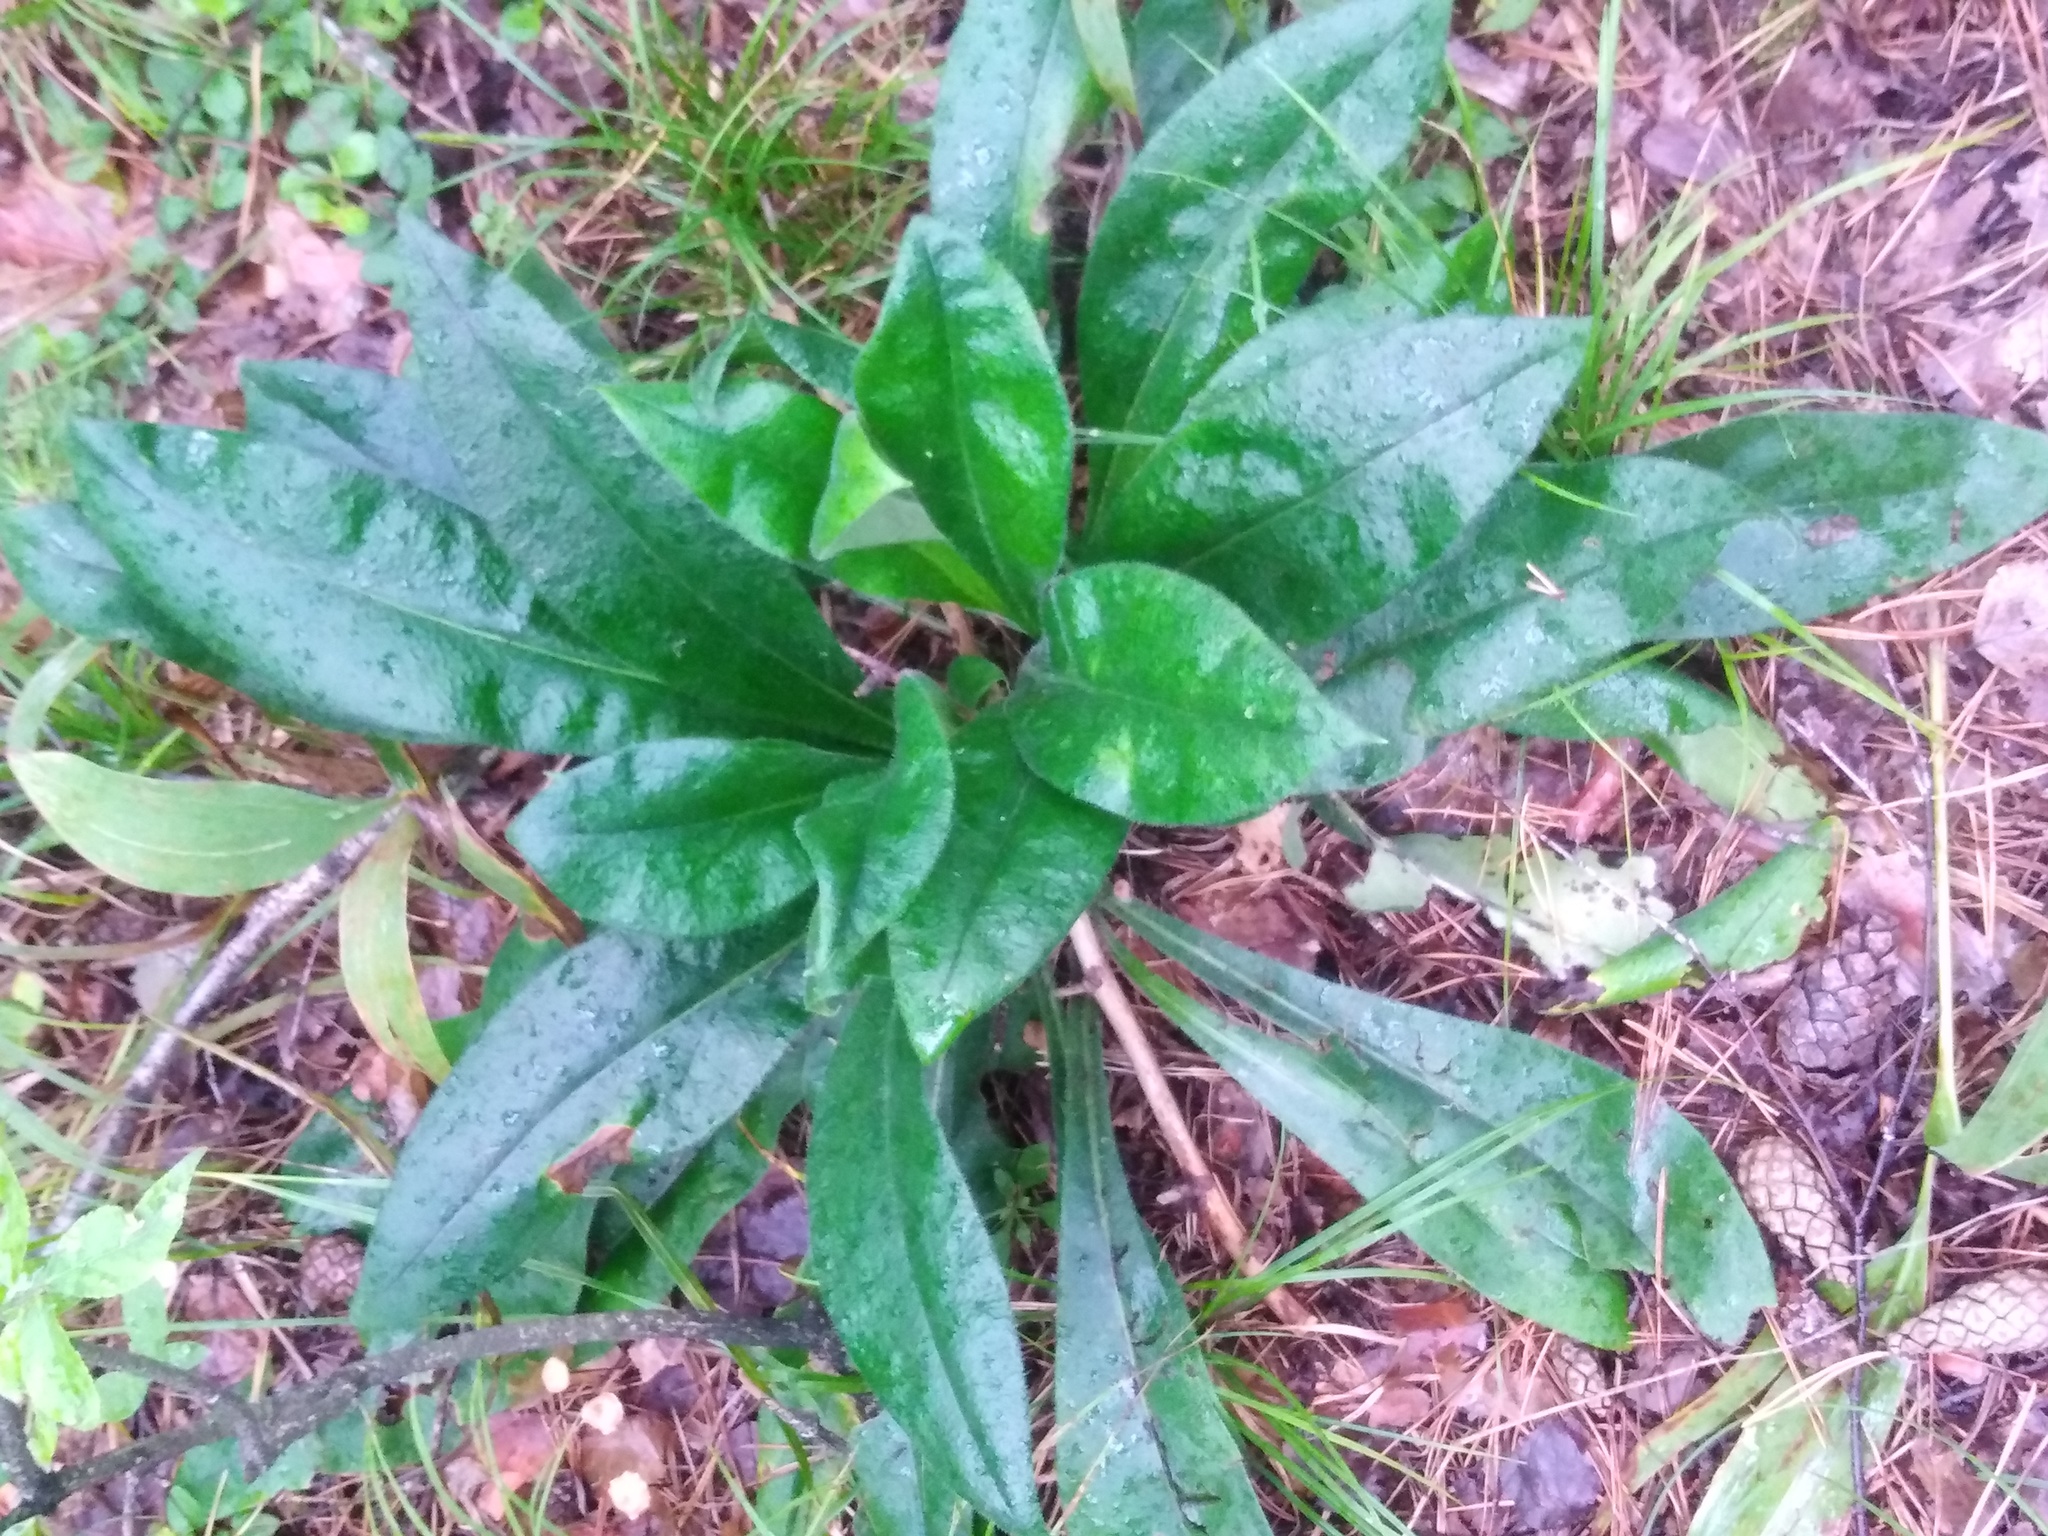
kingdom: Plantae
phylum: Tracheophyta
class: Magnoliopsida
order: Boraginales
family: Boraginaceae
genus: Pulmonaria
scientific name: Pulmonaria angustifolia
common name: Blue cowslip
